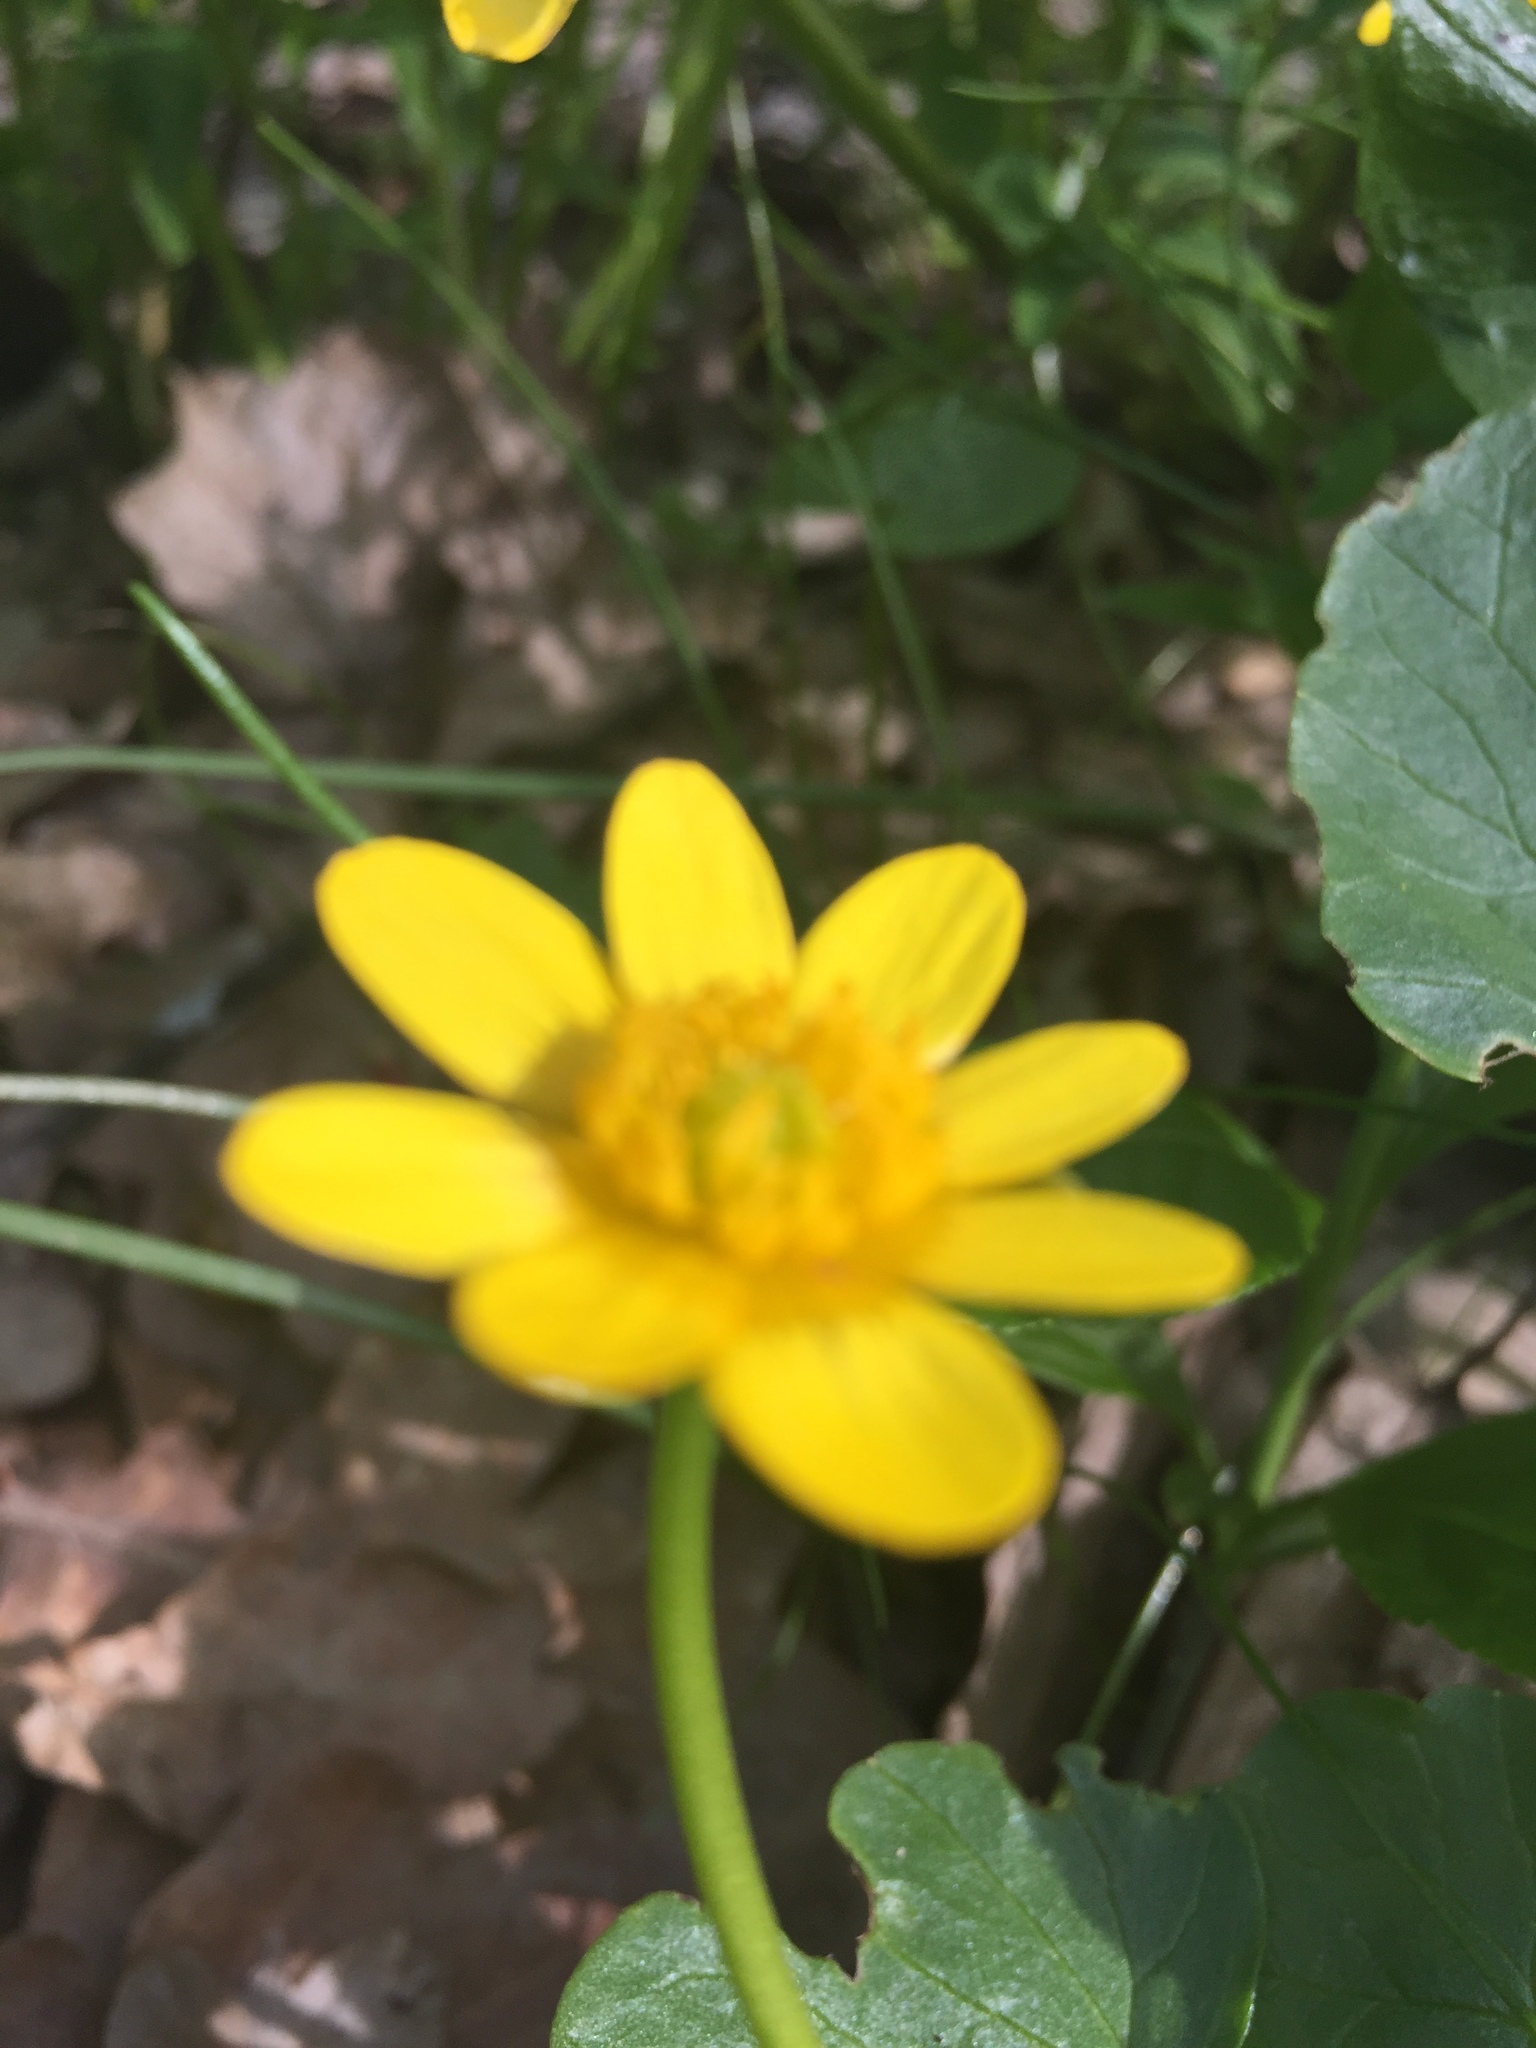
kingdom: Plantae
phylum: Tracheophyta
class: Magnoliopsida
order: Ranunculales
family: Ranunculaceae
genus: Ficaria
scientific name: Ficaria verna
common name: Lesser celandine
